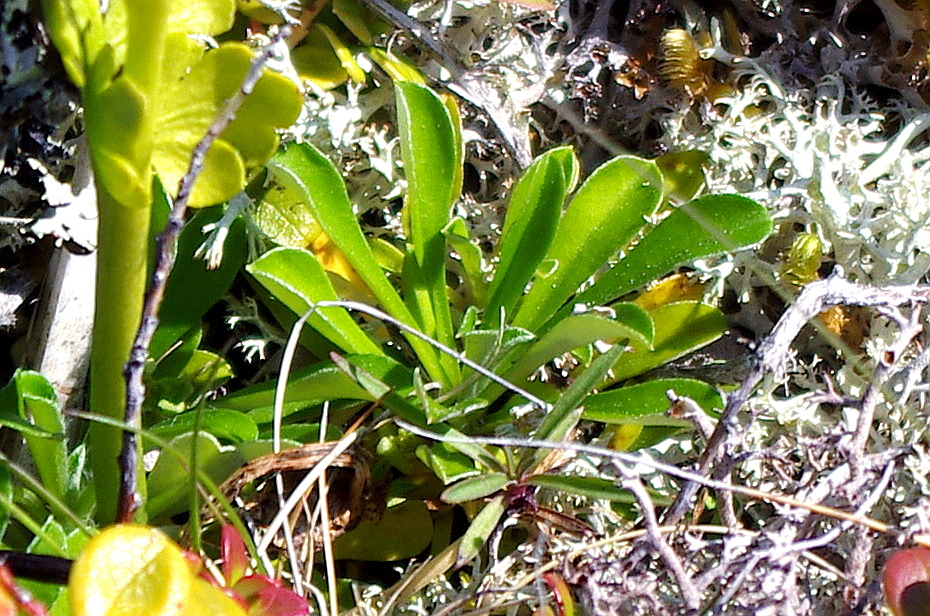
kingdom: Plantae
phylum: Tracheophyta
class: Magnoliopsida
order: Asterales
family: Asteraceae
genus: Antennaria
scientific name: Antennaria dioica
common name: Mountain everlasting
